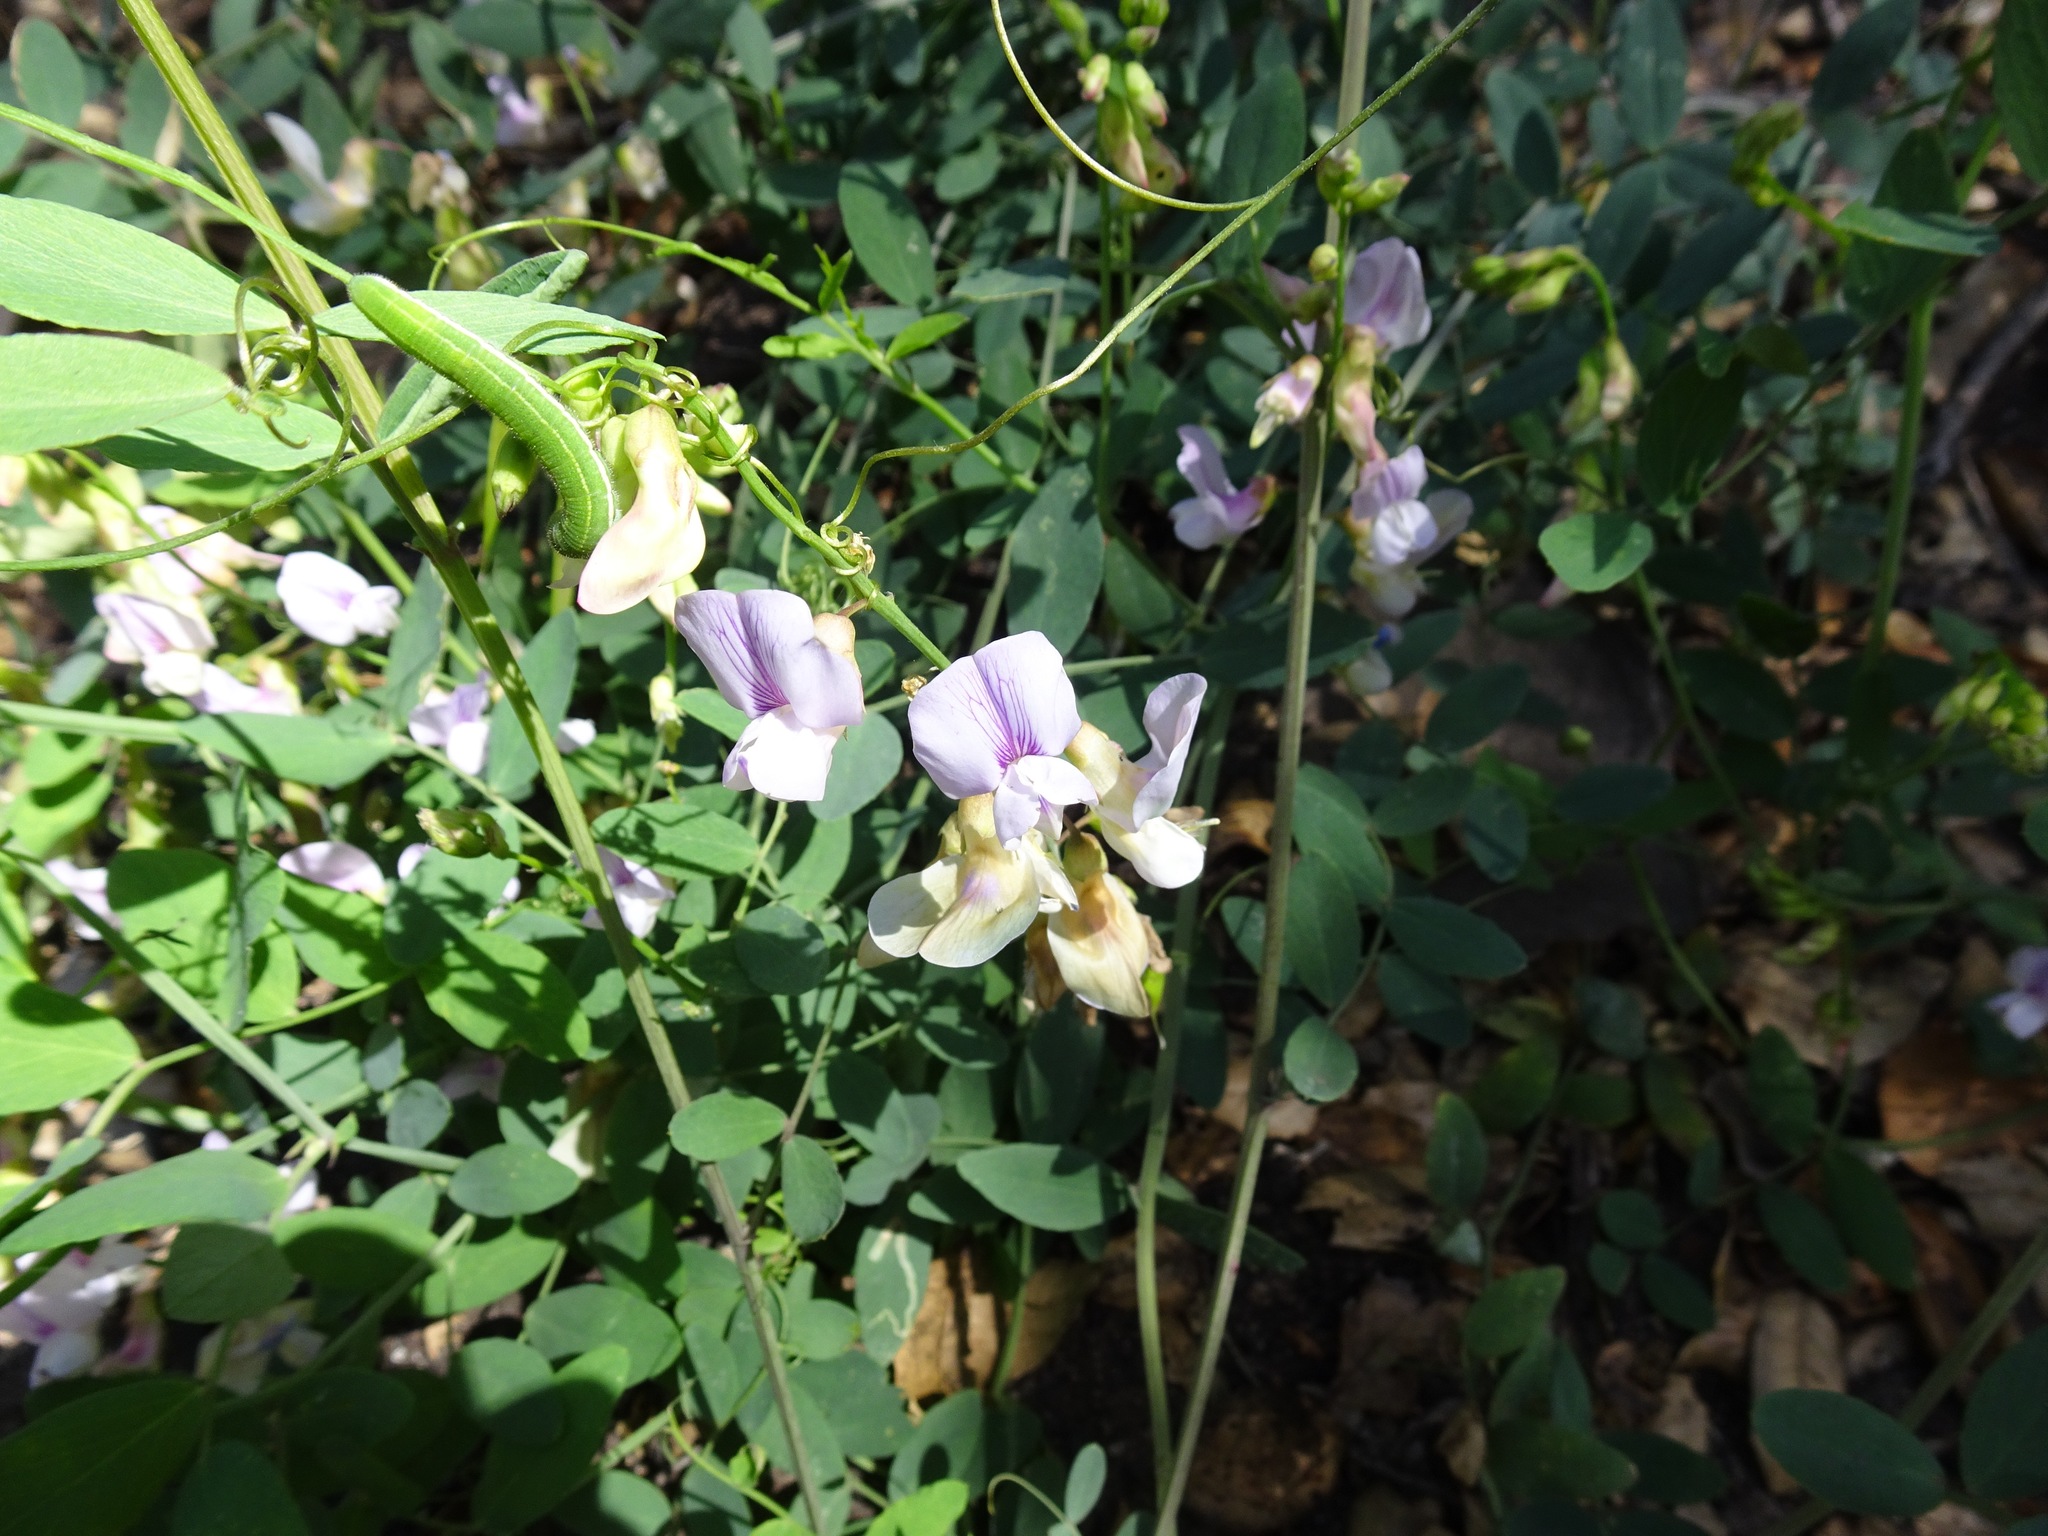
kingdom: Plantae
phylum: Tracheophyta
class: Magnoliopsida
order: Fabales
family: Fabaceae
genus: Lathyrus
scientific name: Lathyrus vestitus
